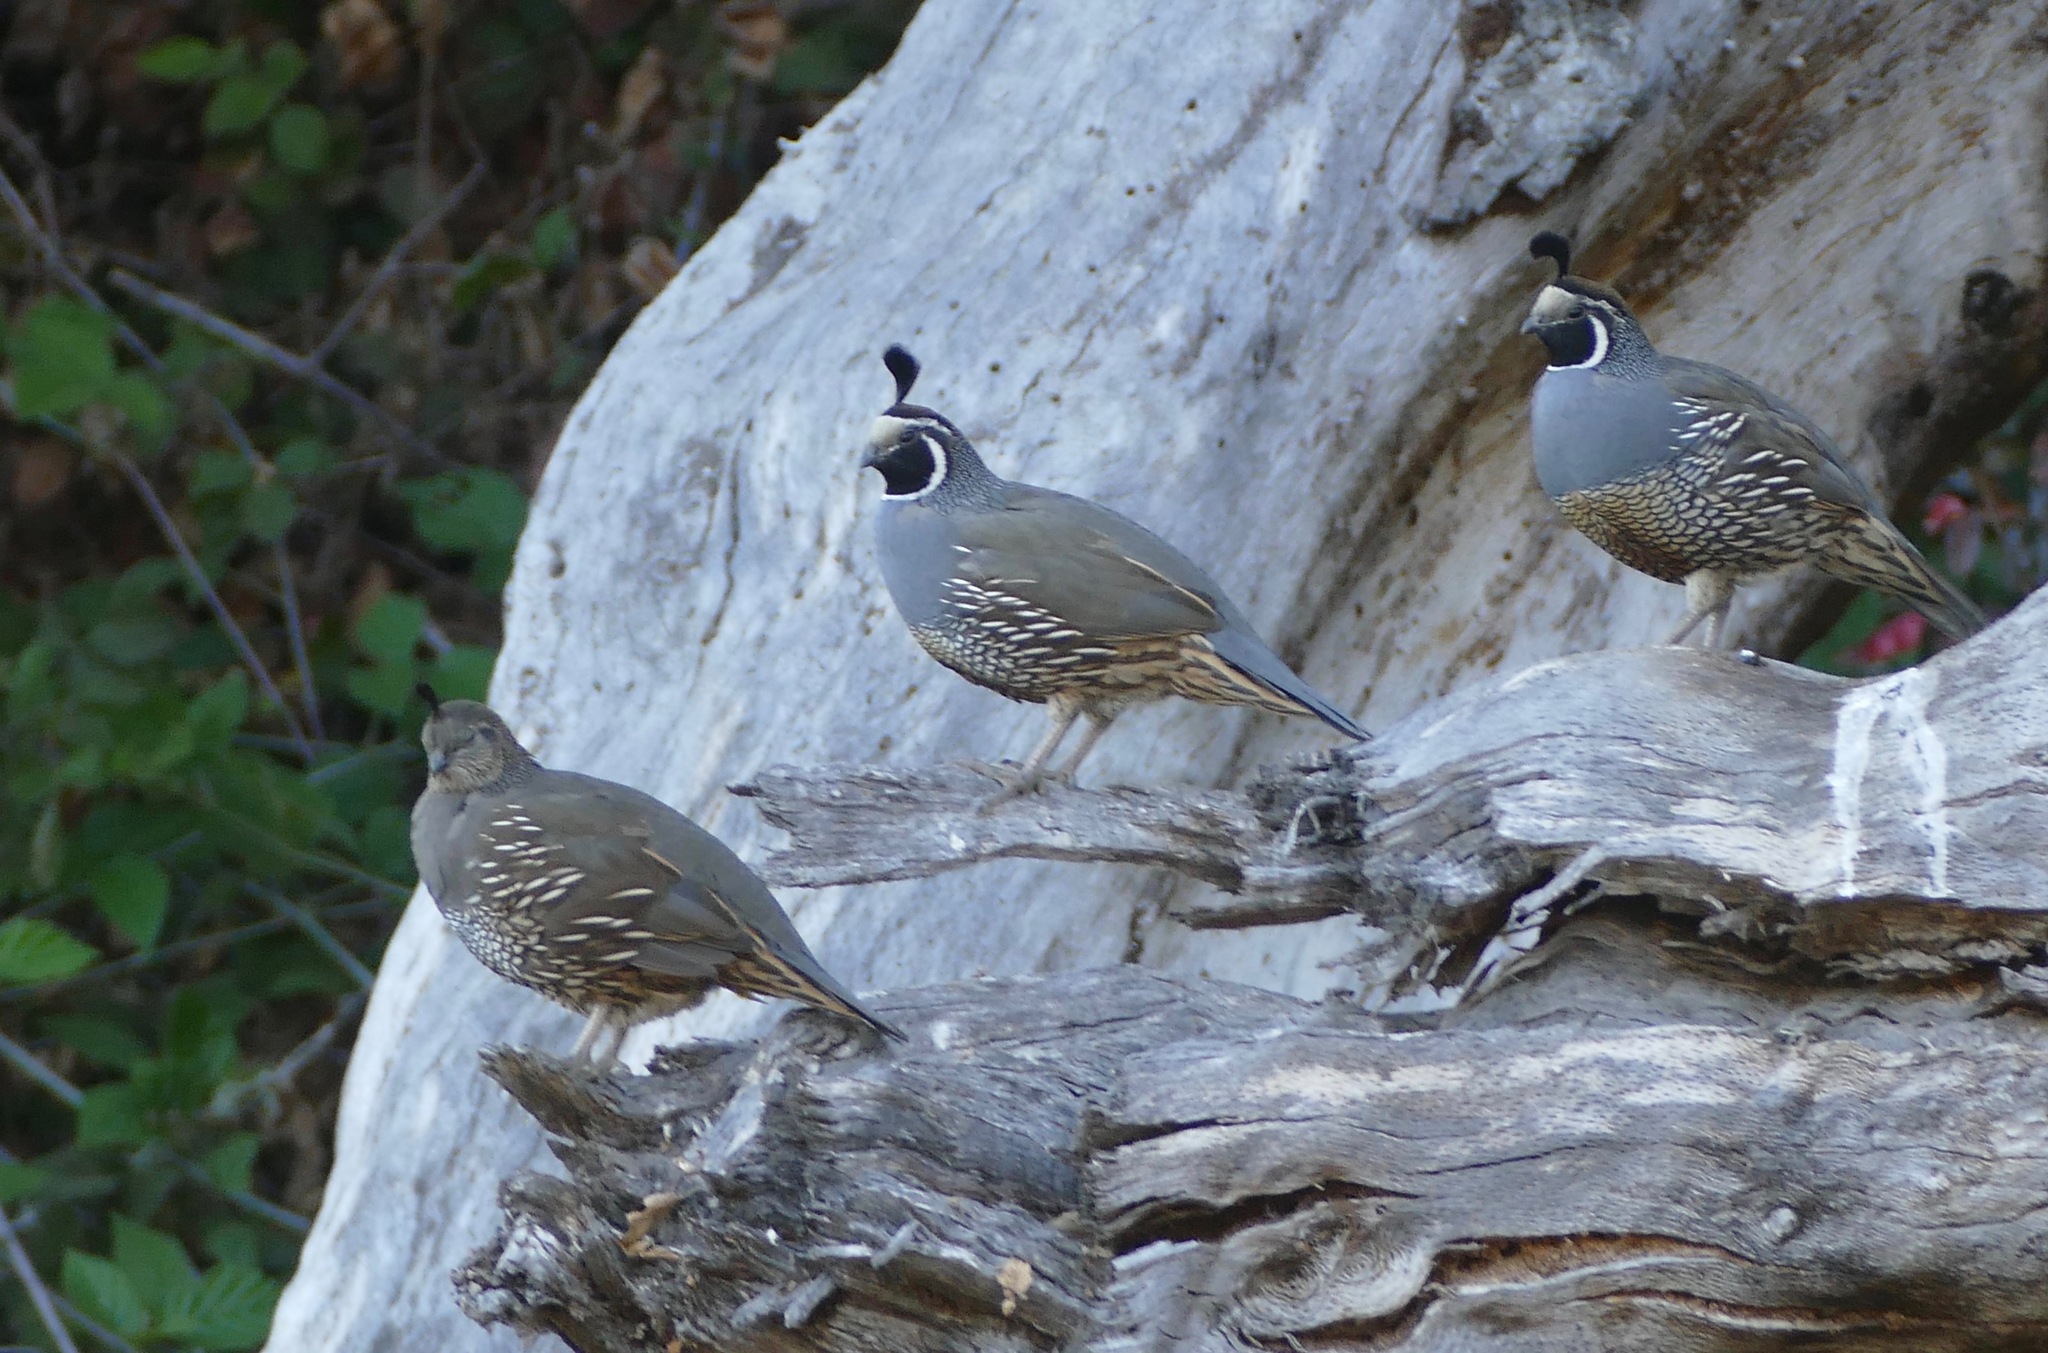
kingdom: Animalia
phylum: Chordata
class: Aves
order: Galliformes
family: Odontophoridae
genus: Callipepla
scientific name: Callipepla californica
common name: California quail
